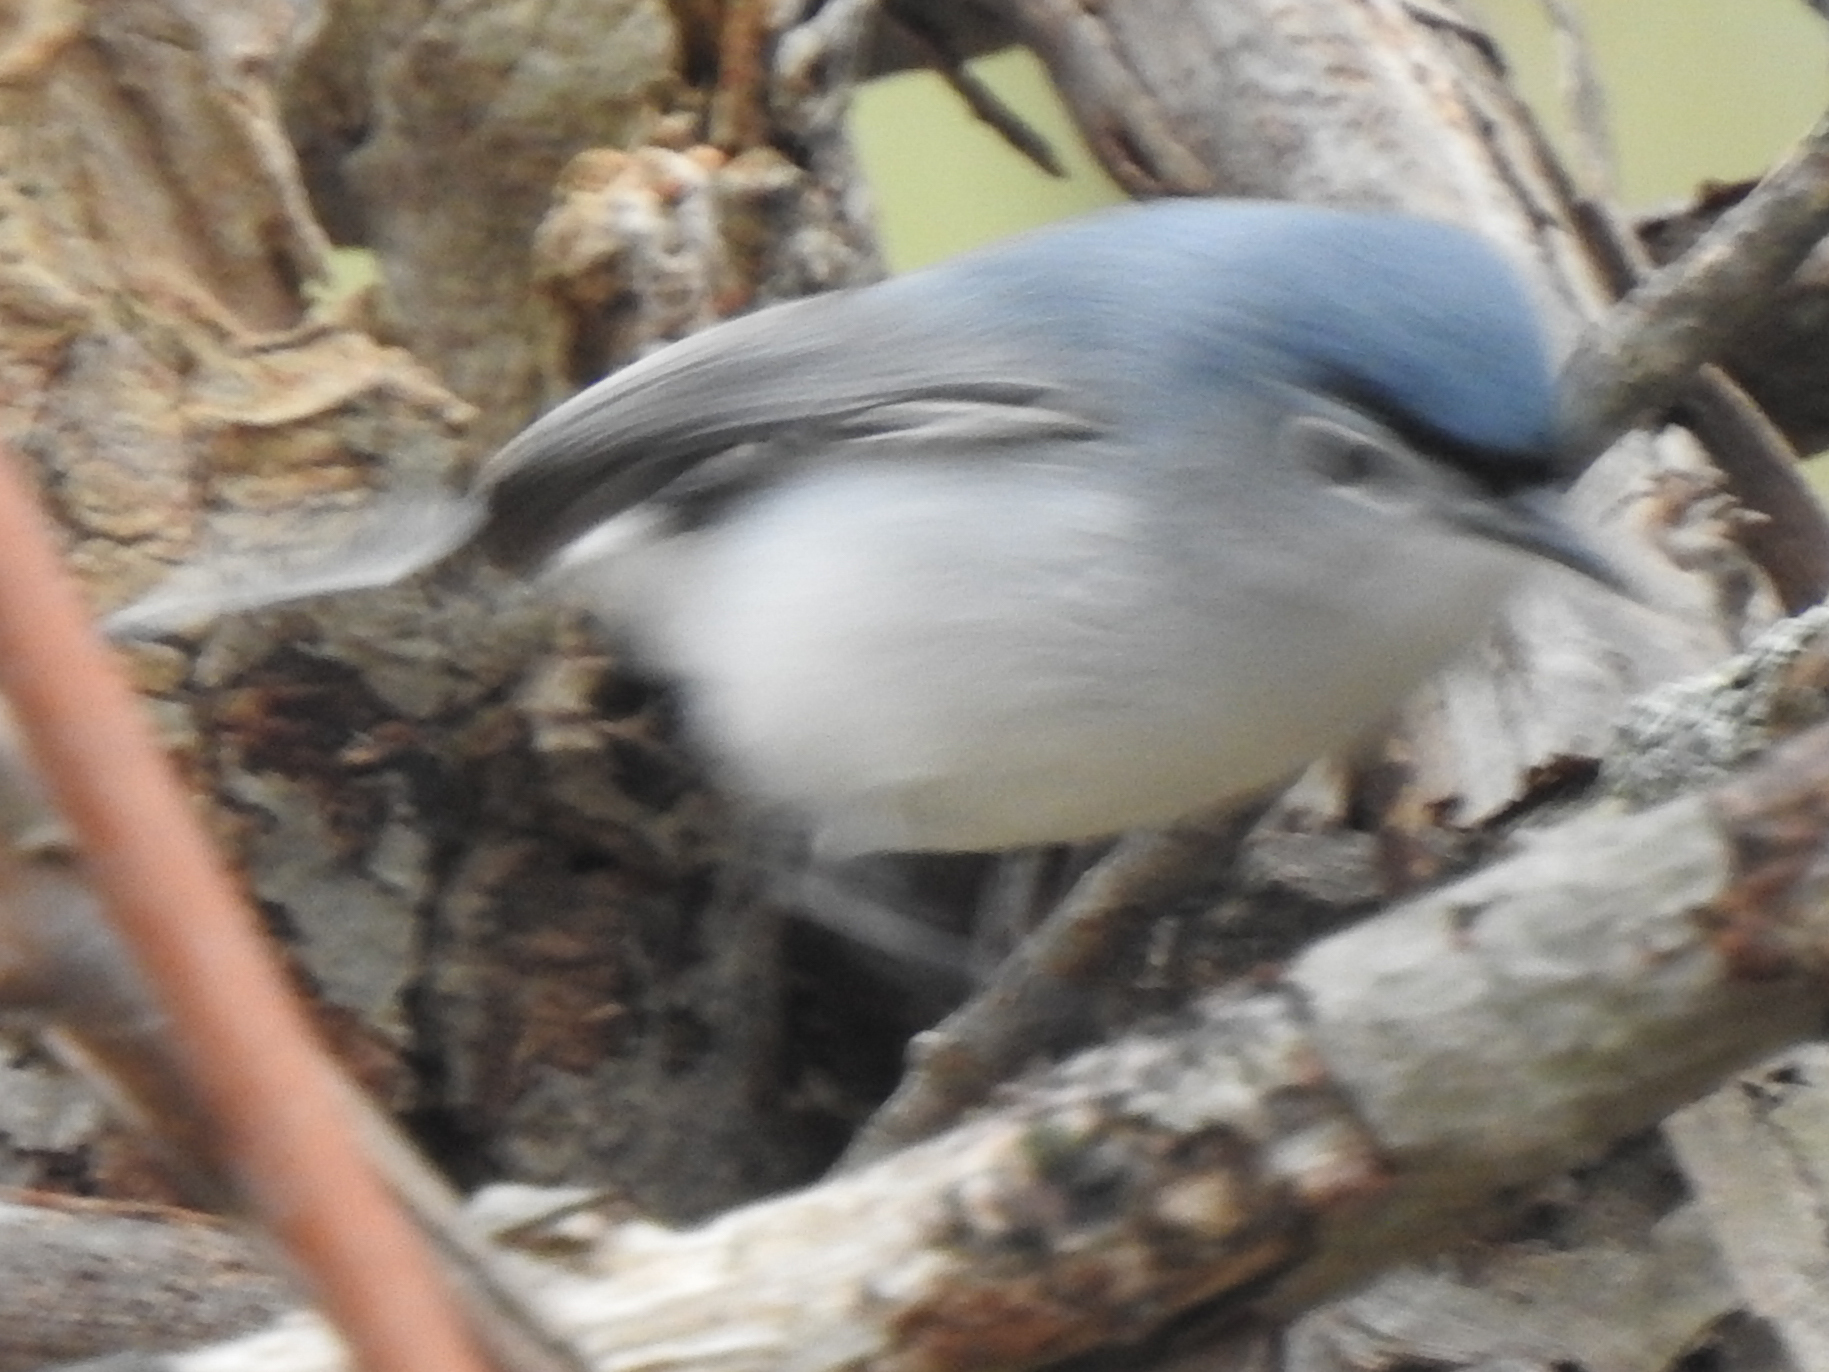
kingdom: Animalia
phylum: Chordata
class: Aves
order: Passeriformes
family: Polioptilidae
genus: Polioptila
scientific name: Polioptila caerulea
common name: Blue-gray gnatcatcher
